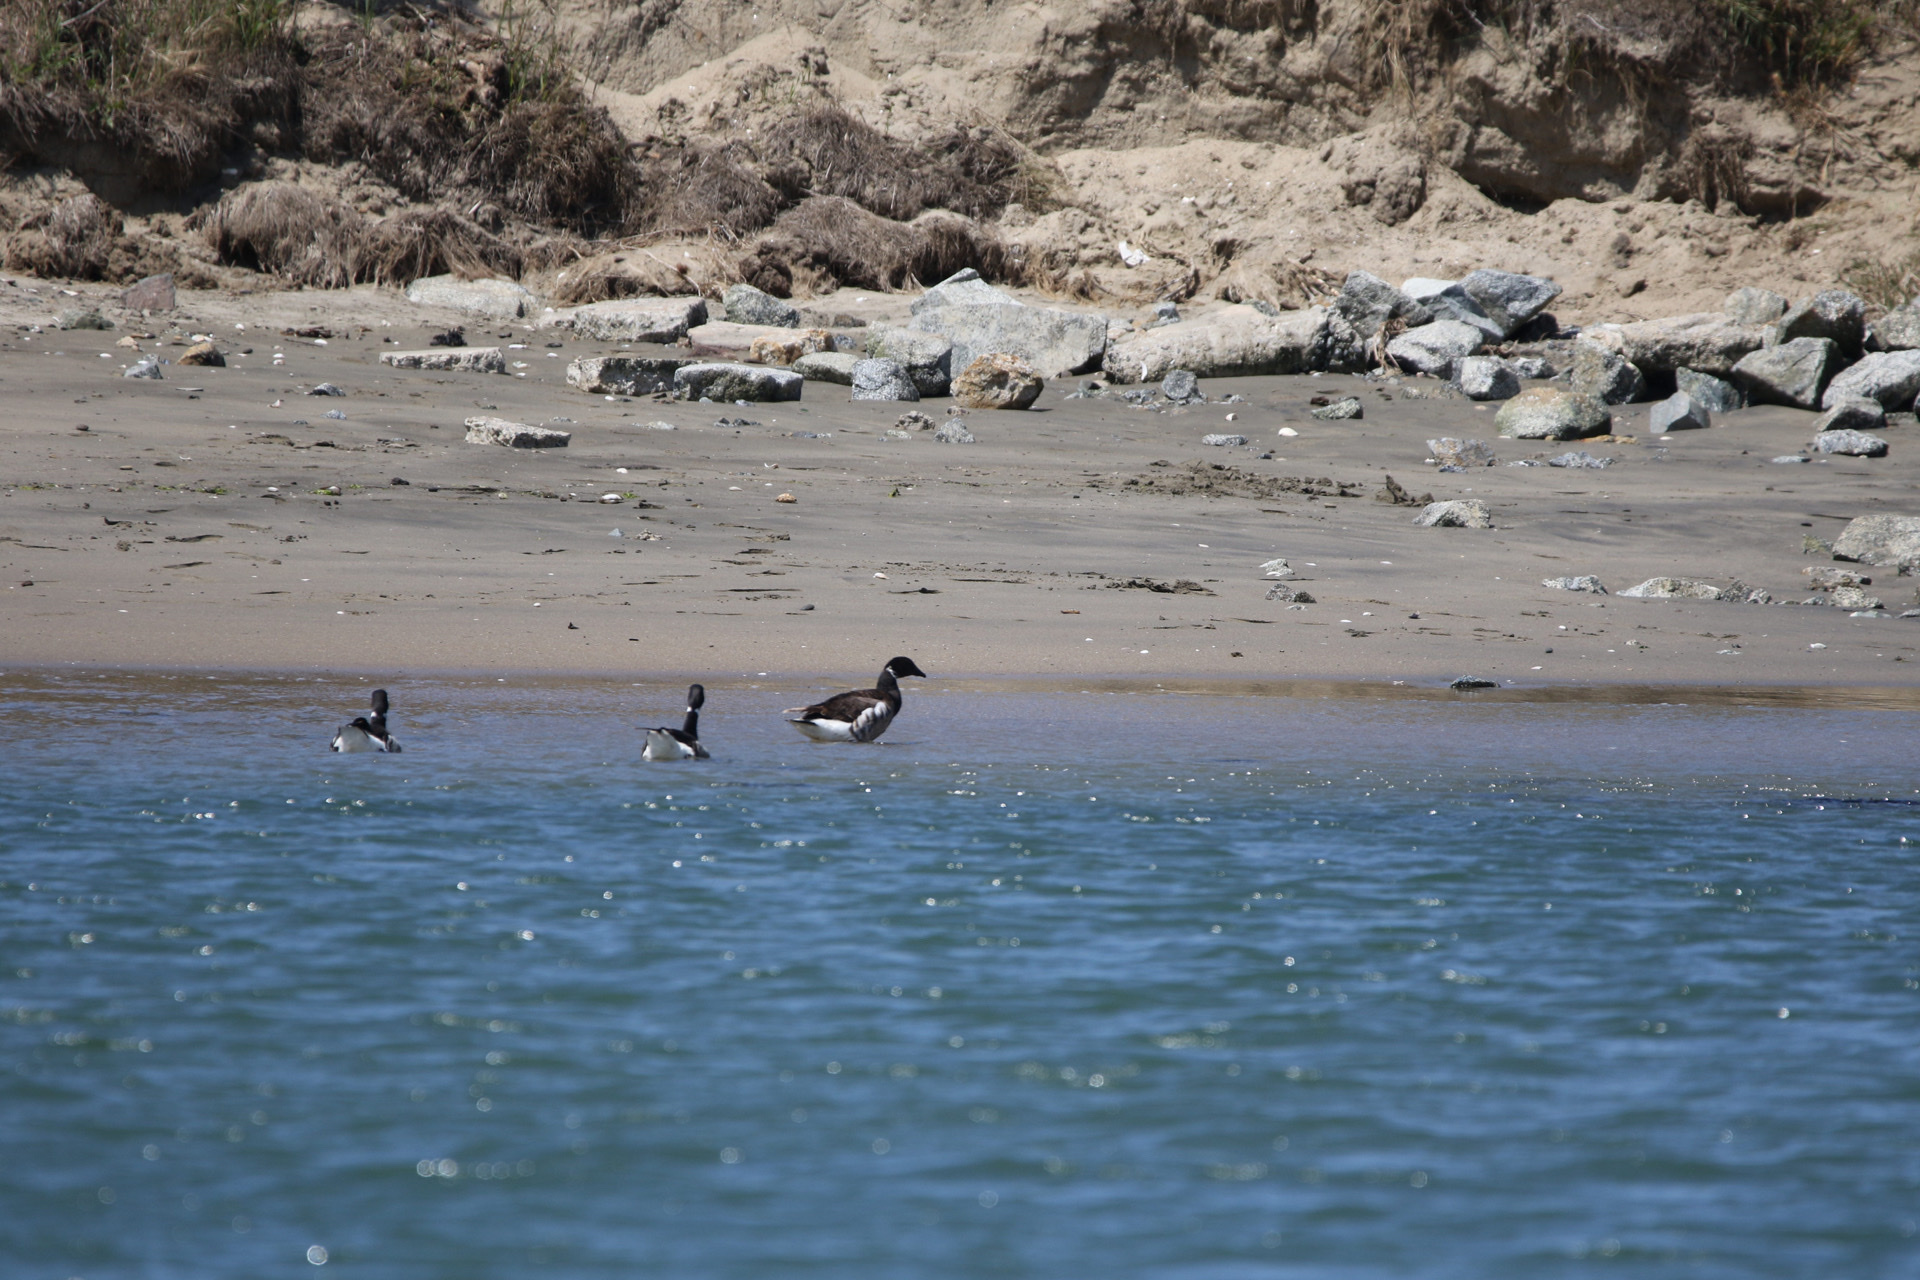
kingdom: Animalia
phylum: Chordata
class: Aves
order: Anseriformes
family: Anatidae
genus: Branta
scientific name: Branta bernicla
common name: Brant goose
